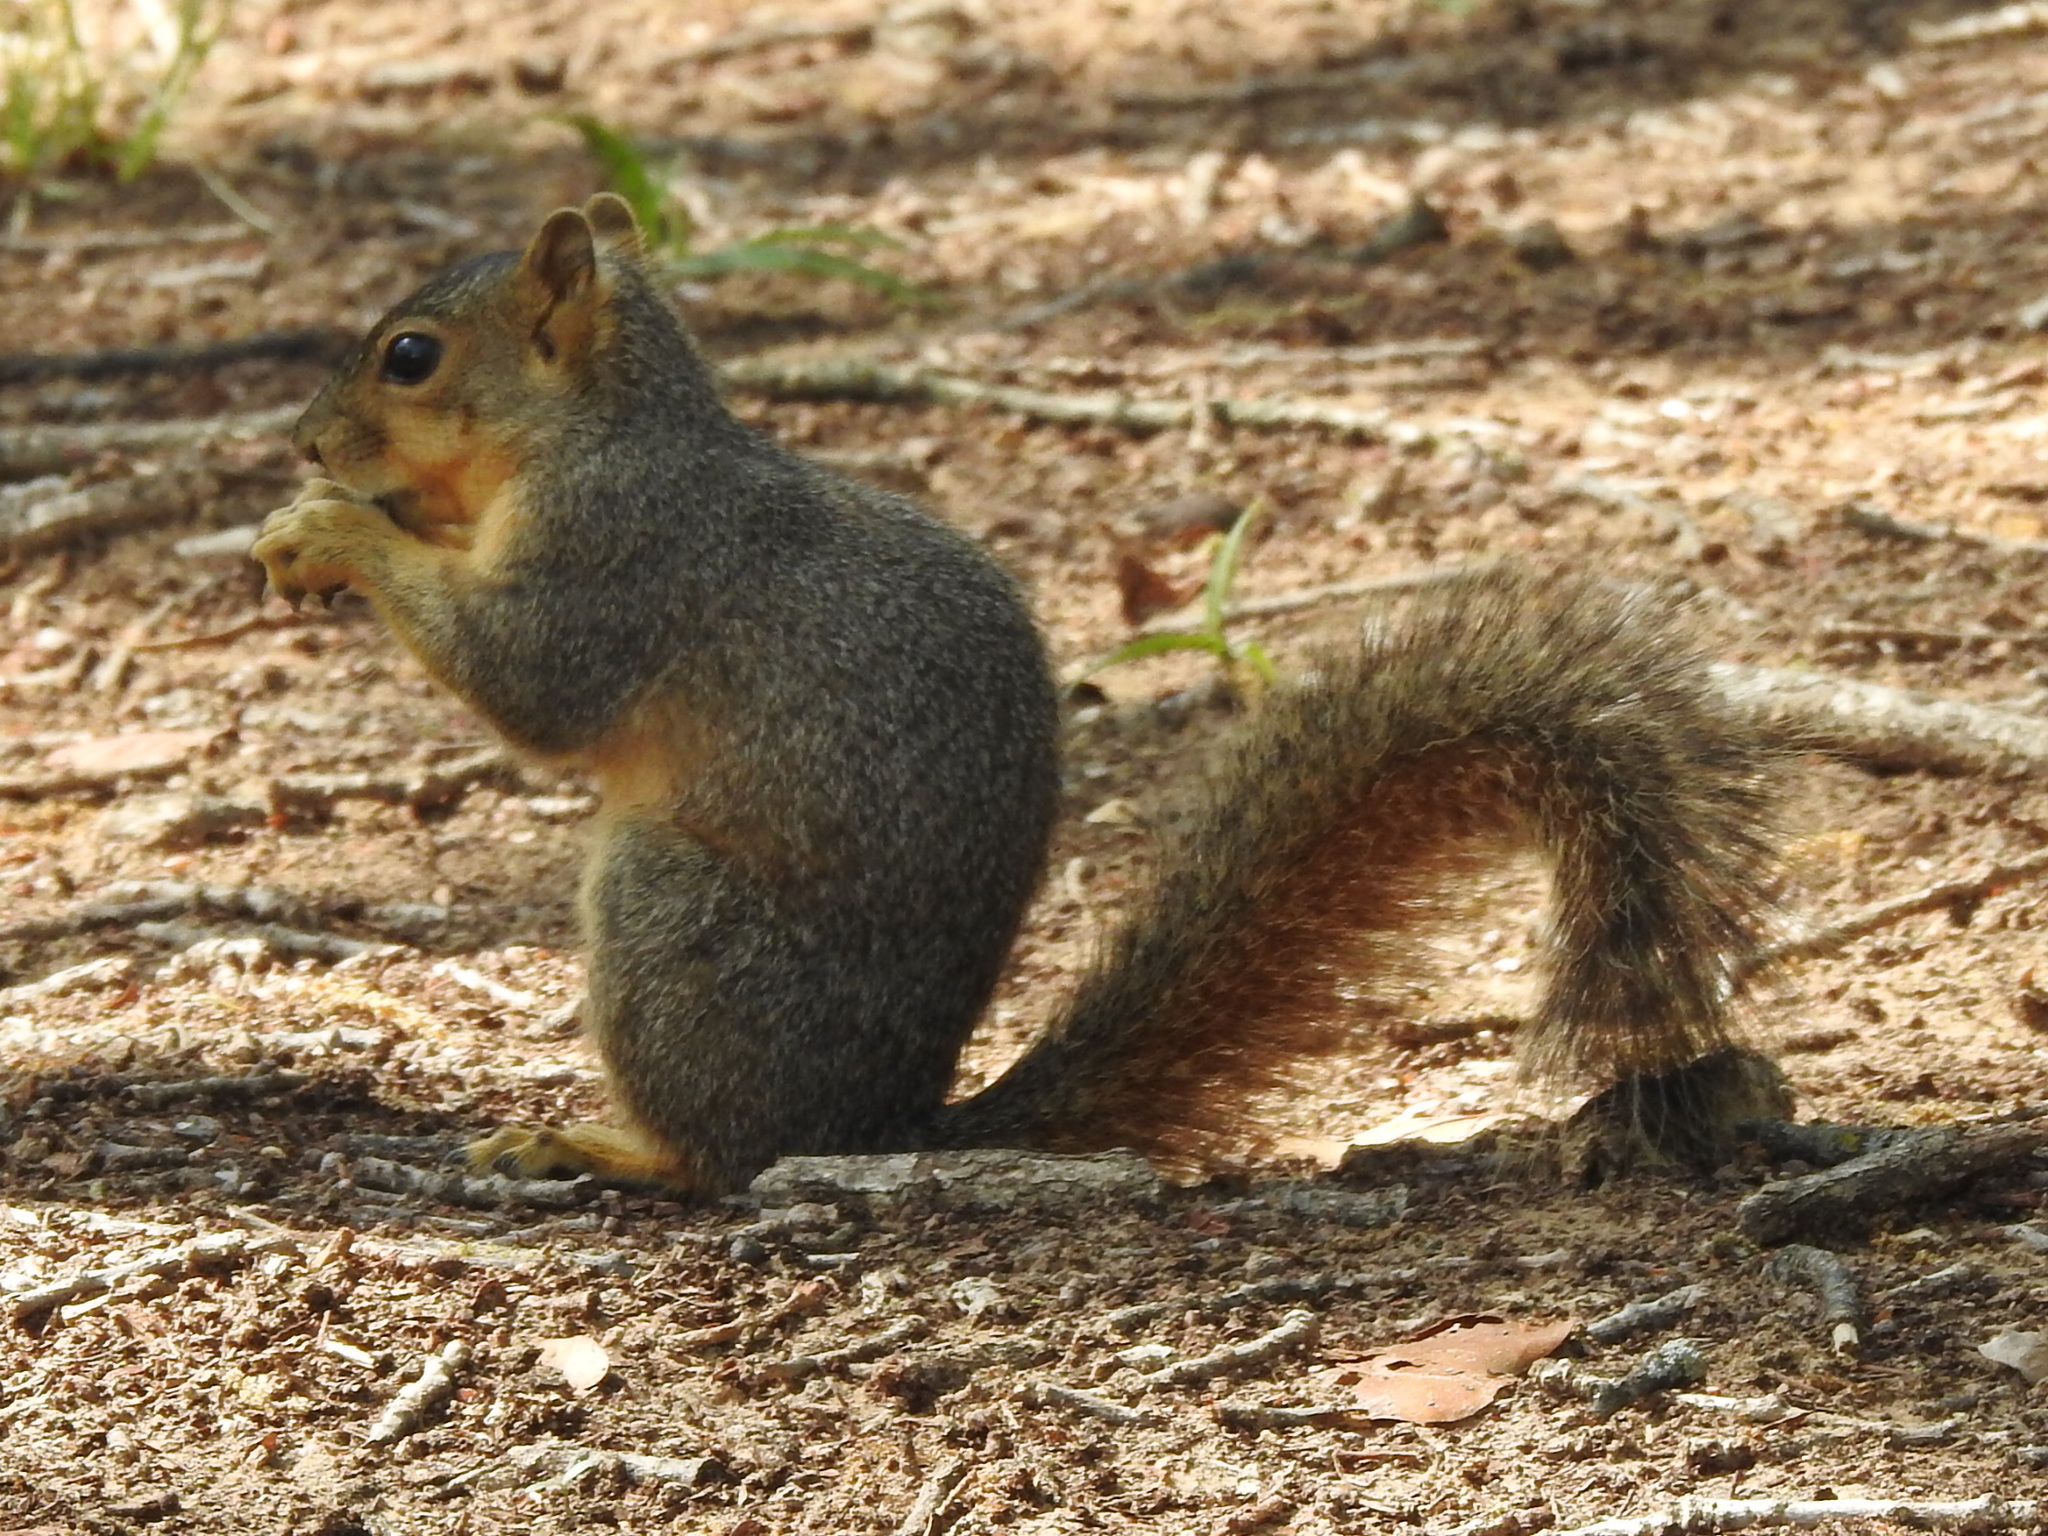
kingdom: Animalia
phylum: Chordata
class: Mammalia
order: Rodentia
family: Sciuridae
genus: Sciurus
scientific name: Sciurus niger
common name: Fox squirrel
